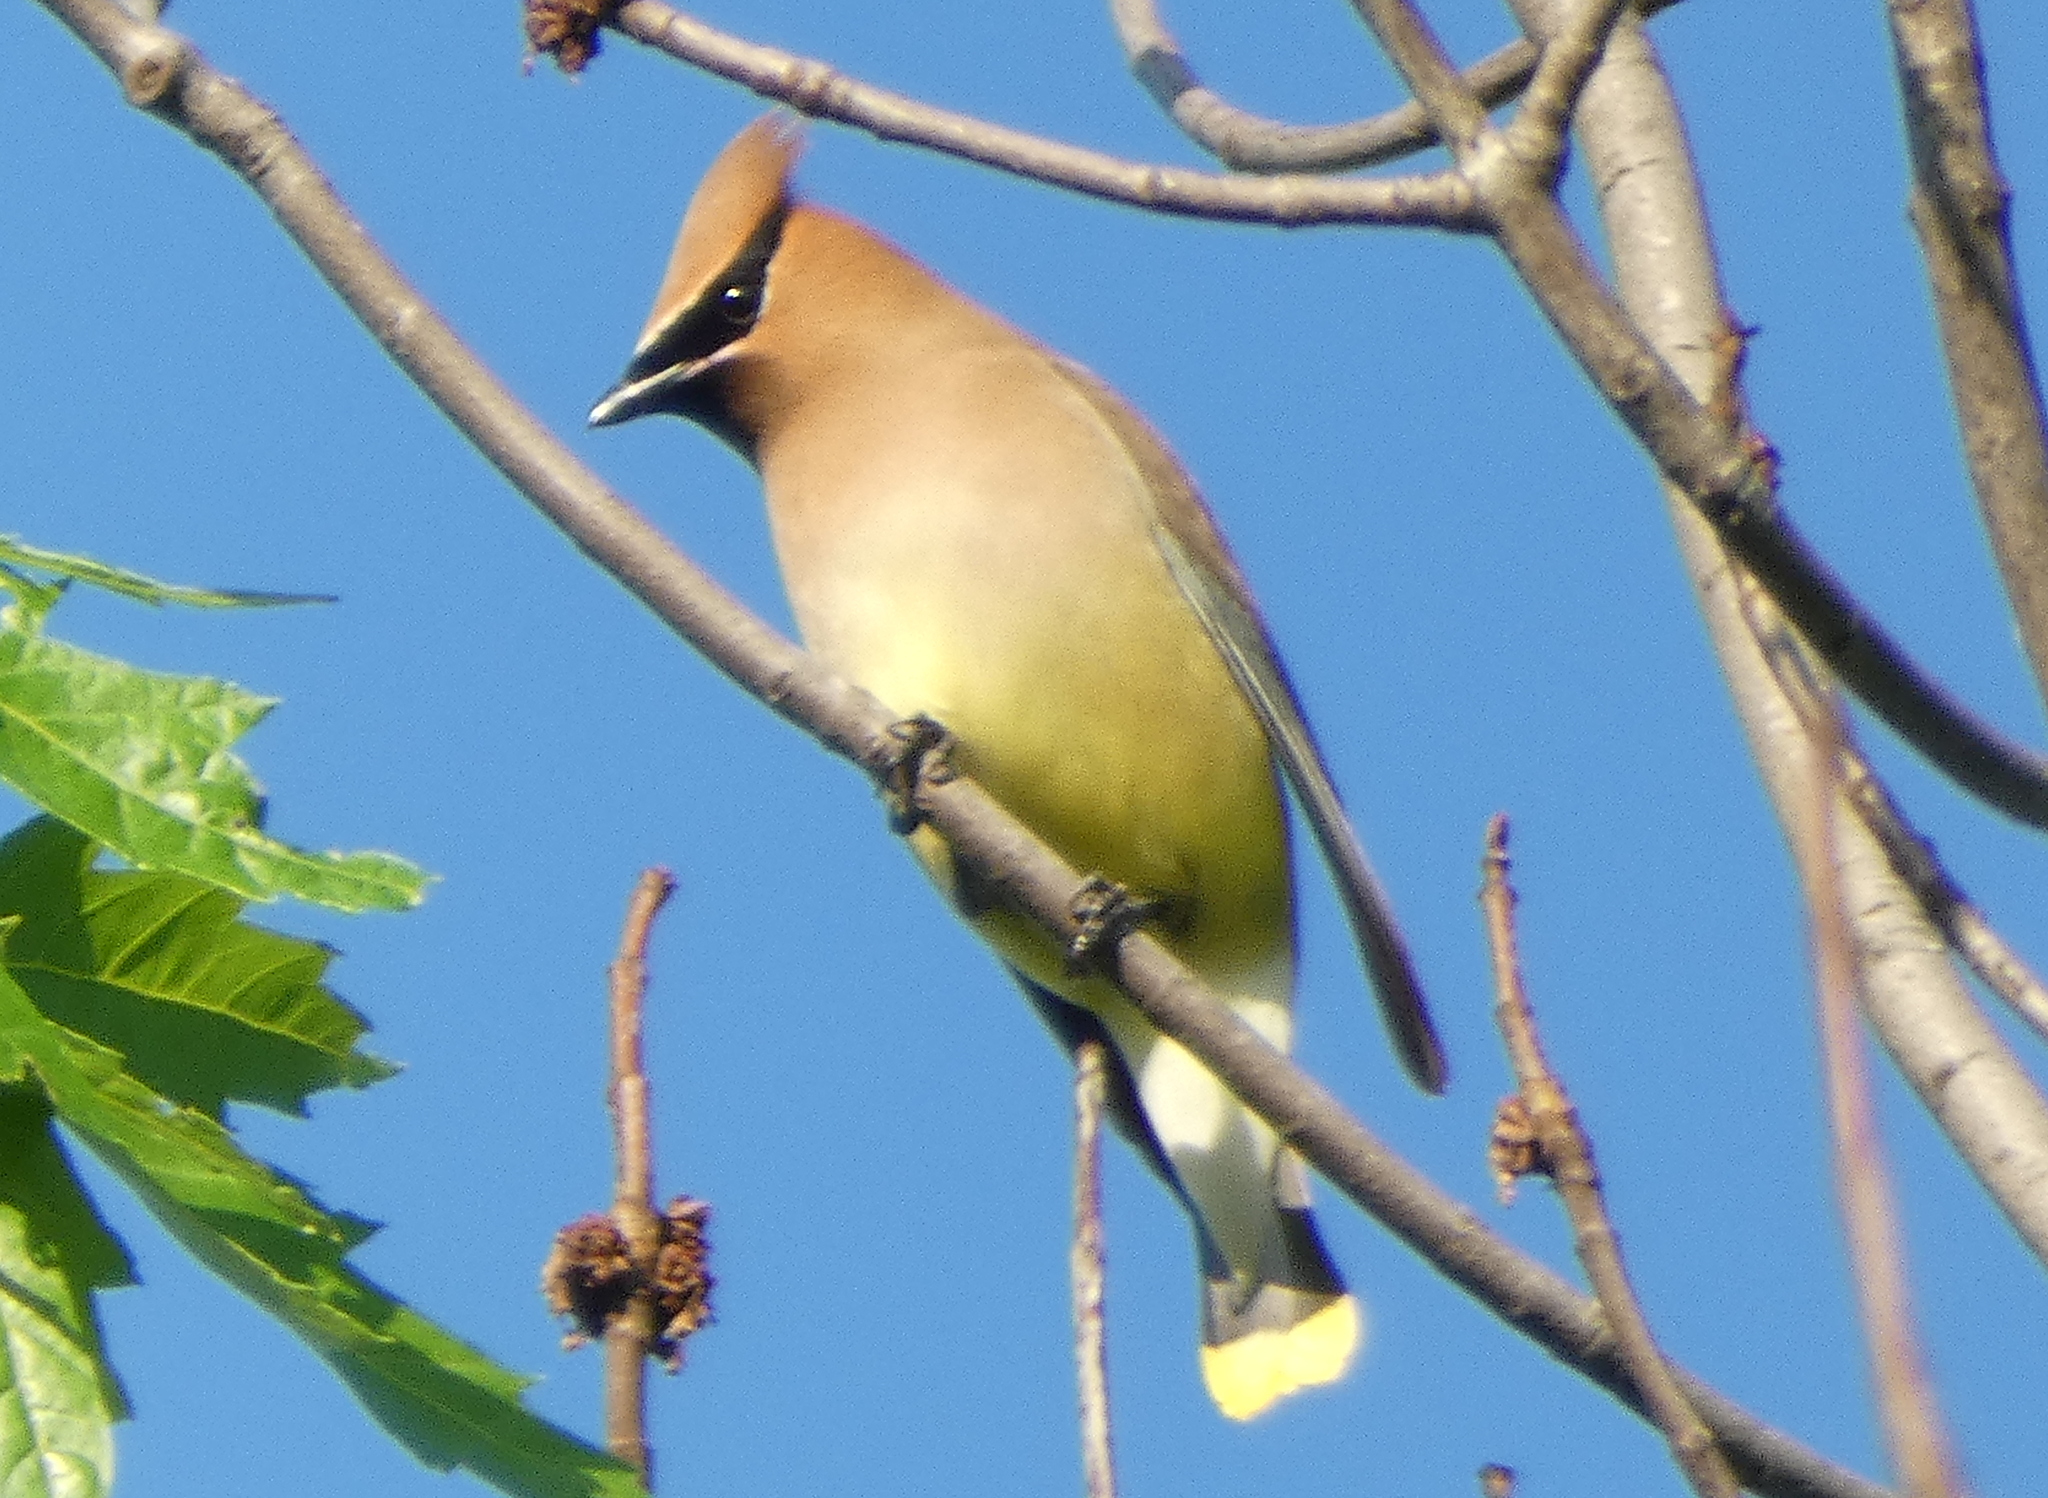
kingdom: Animalia
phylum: Chordata
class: Aves
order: Passeriformes
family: Bombycillidae
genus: Bombycilla
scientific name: Bombycilla cedrorum
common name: Cedar waxwing
